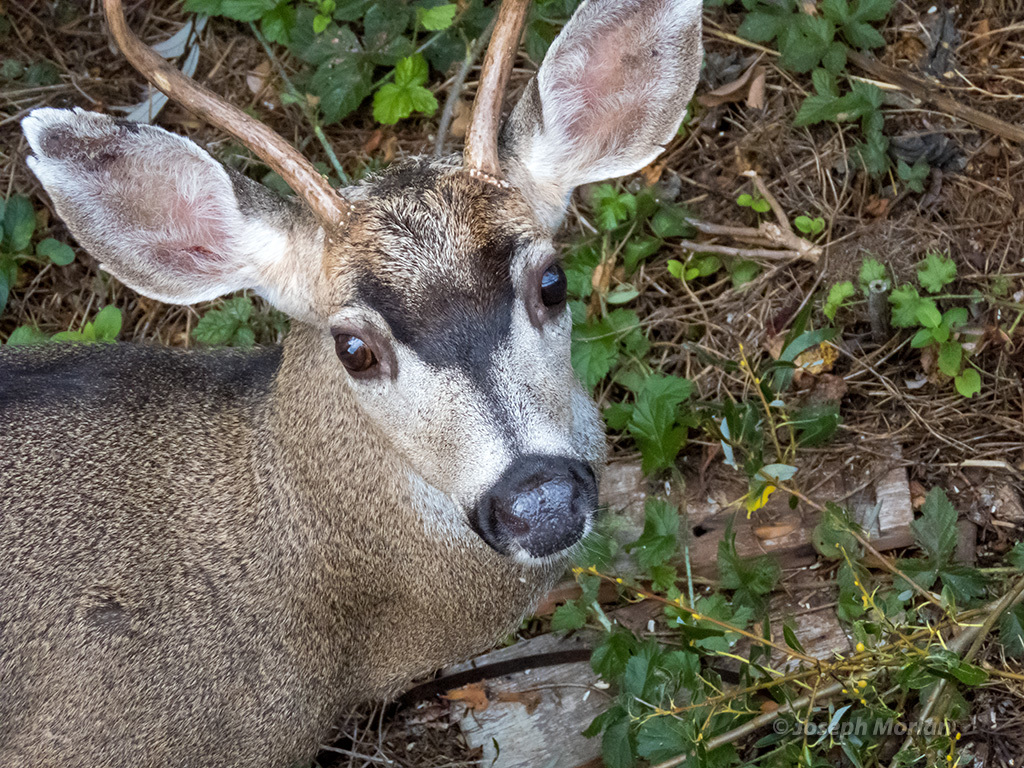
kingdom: Animalia
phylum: Chordata
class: Mammalia
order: Artiodactyla
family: Cervidae
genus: Odocoileus
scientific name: Odocoileus hemionus
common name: Mule deer
